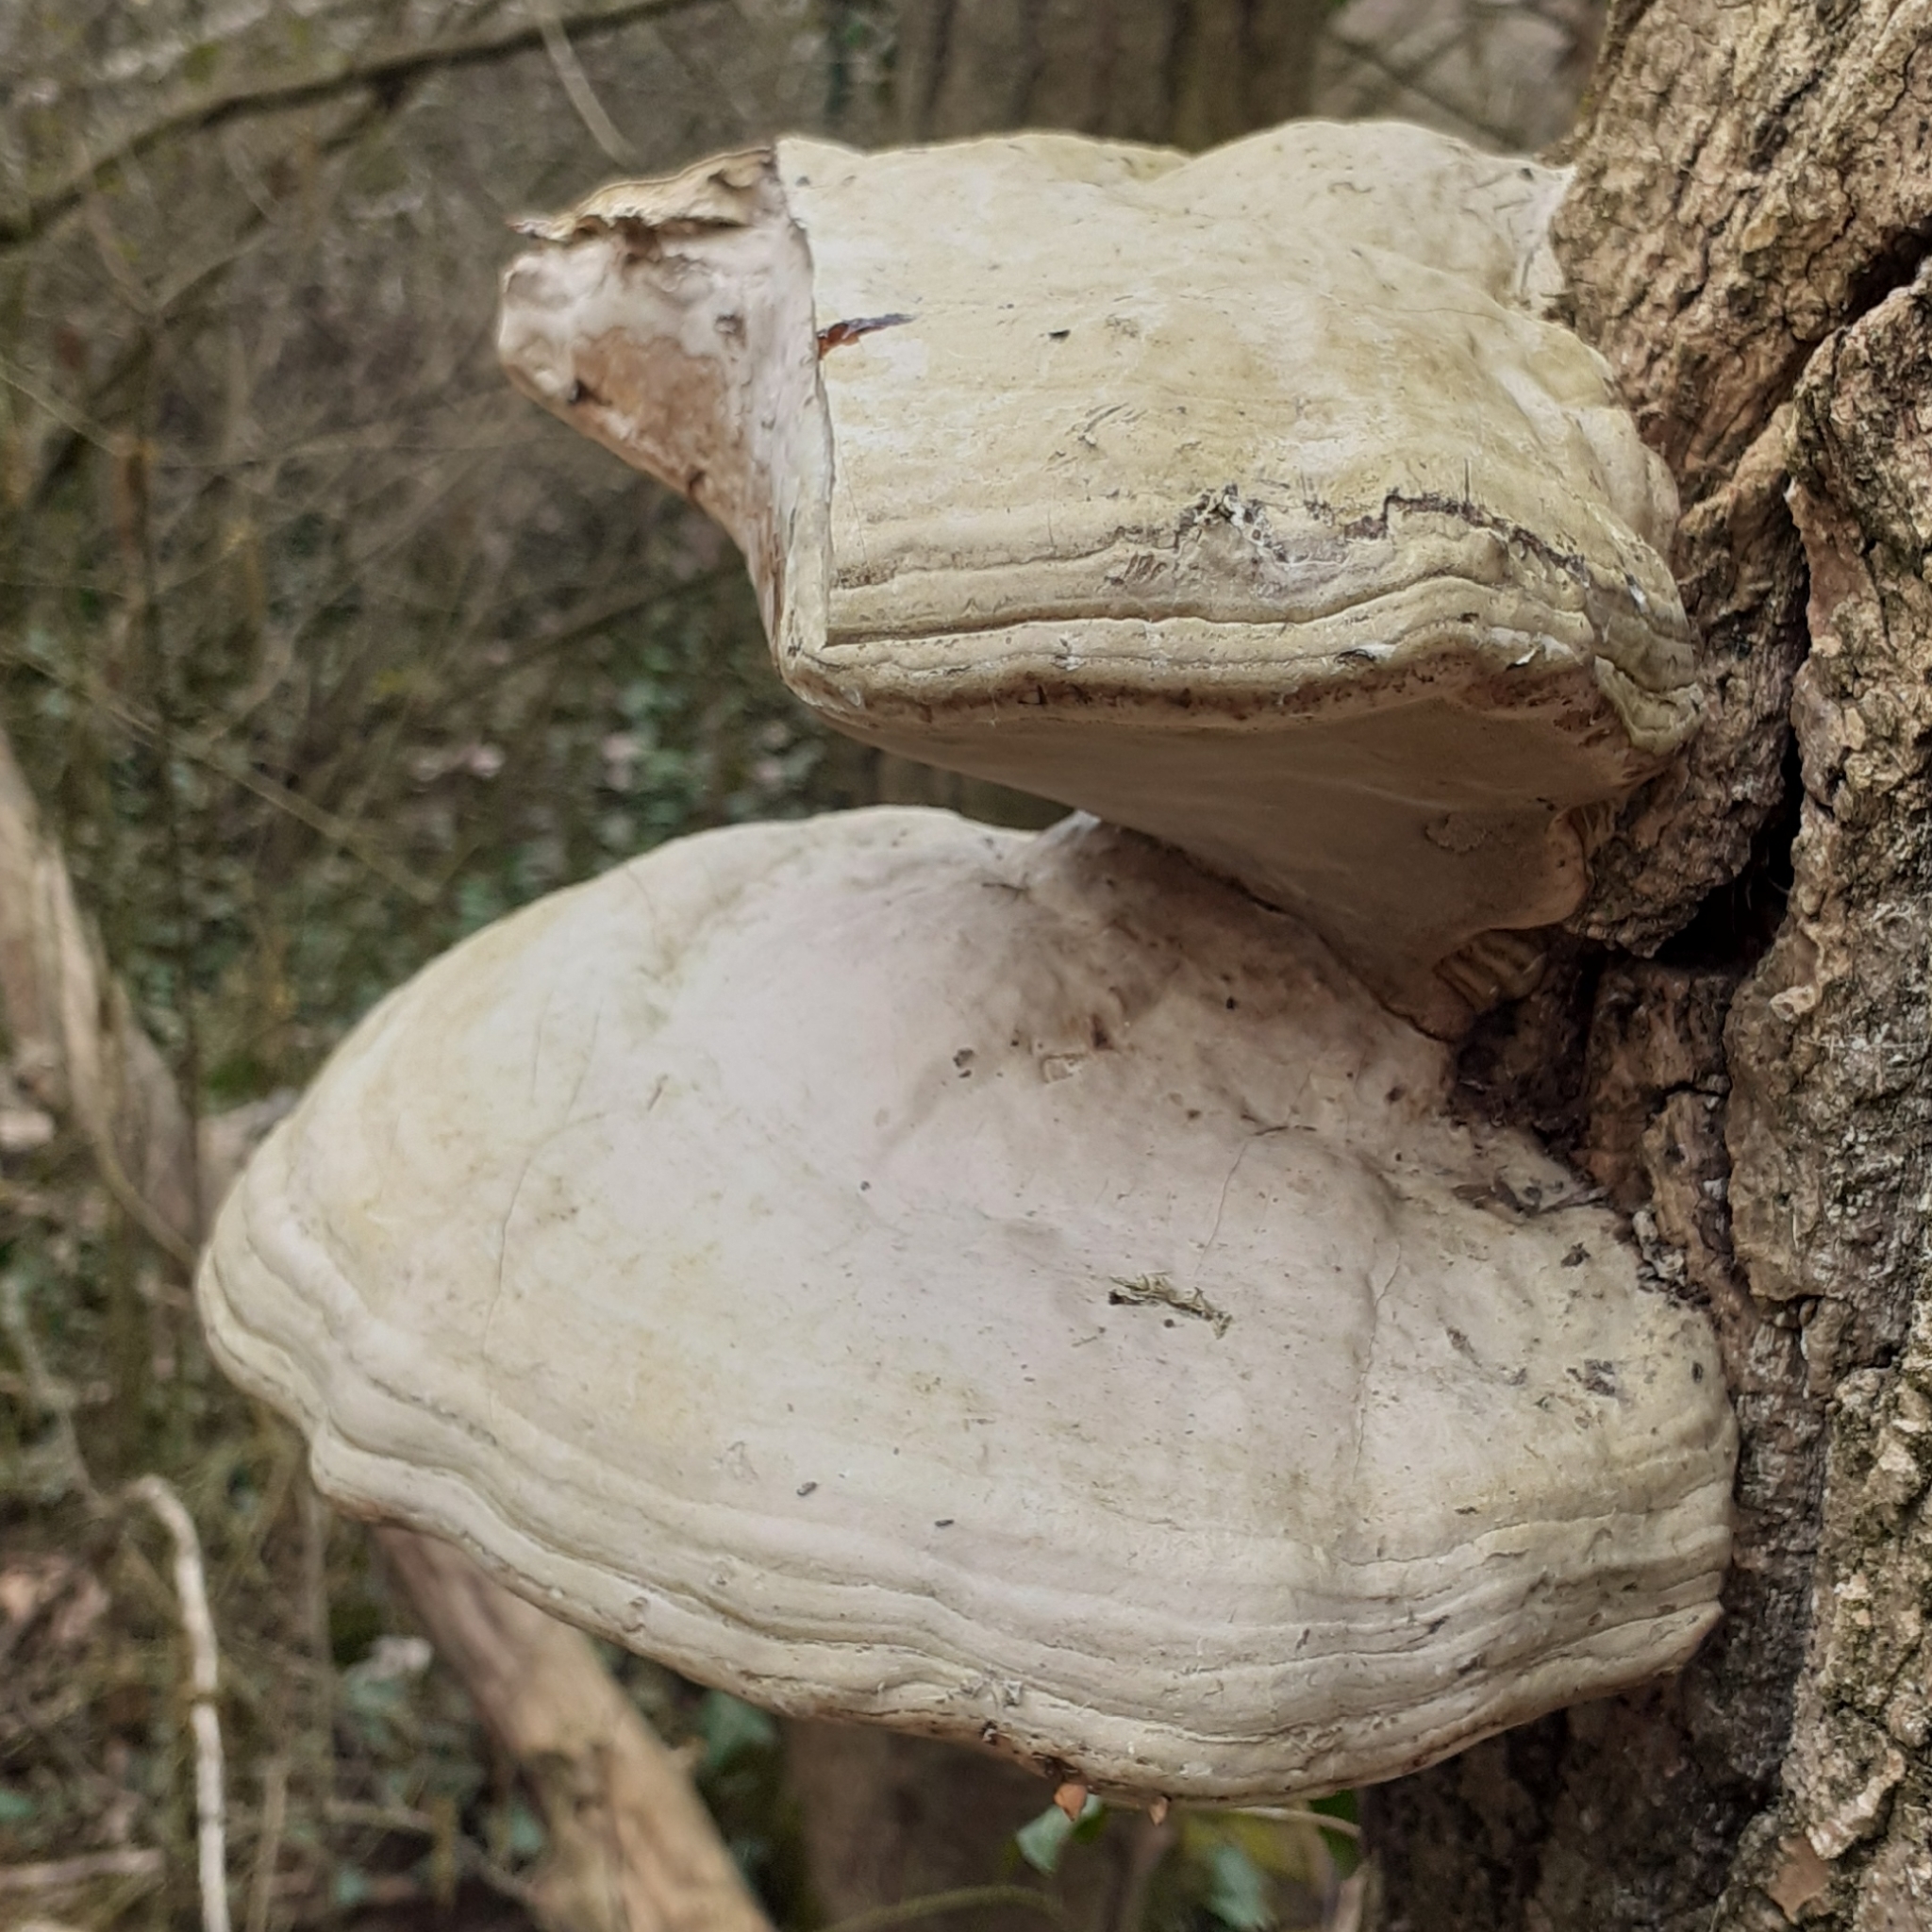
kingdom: Fungi
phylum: Basidiomycota
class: Agaricomycetes
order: Polyporales
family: Polyporaceae
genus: Fomes
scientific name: Fomes fomentarius
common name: Hoof fungus
